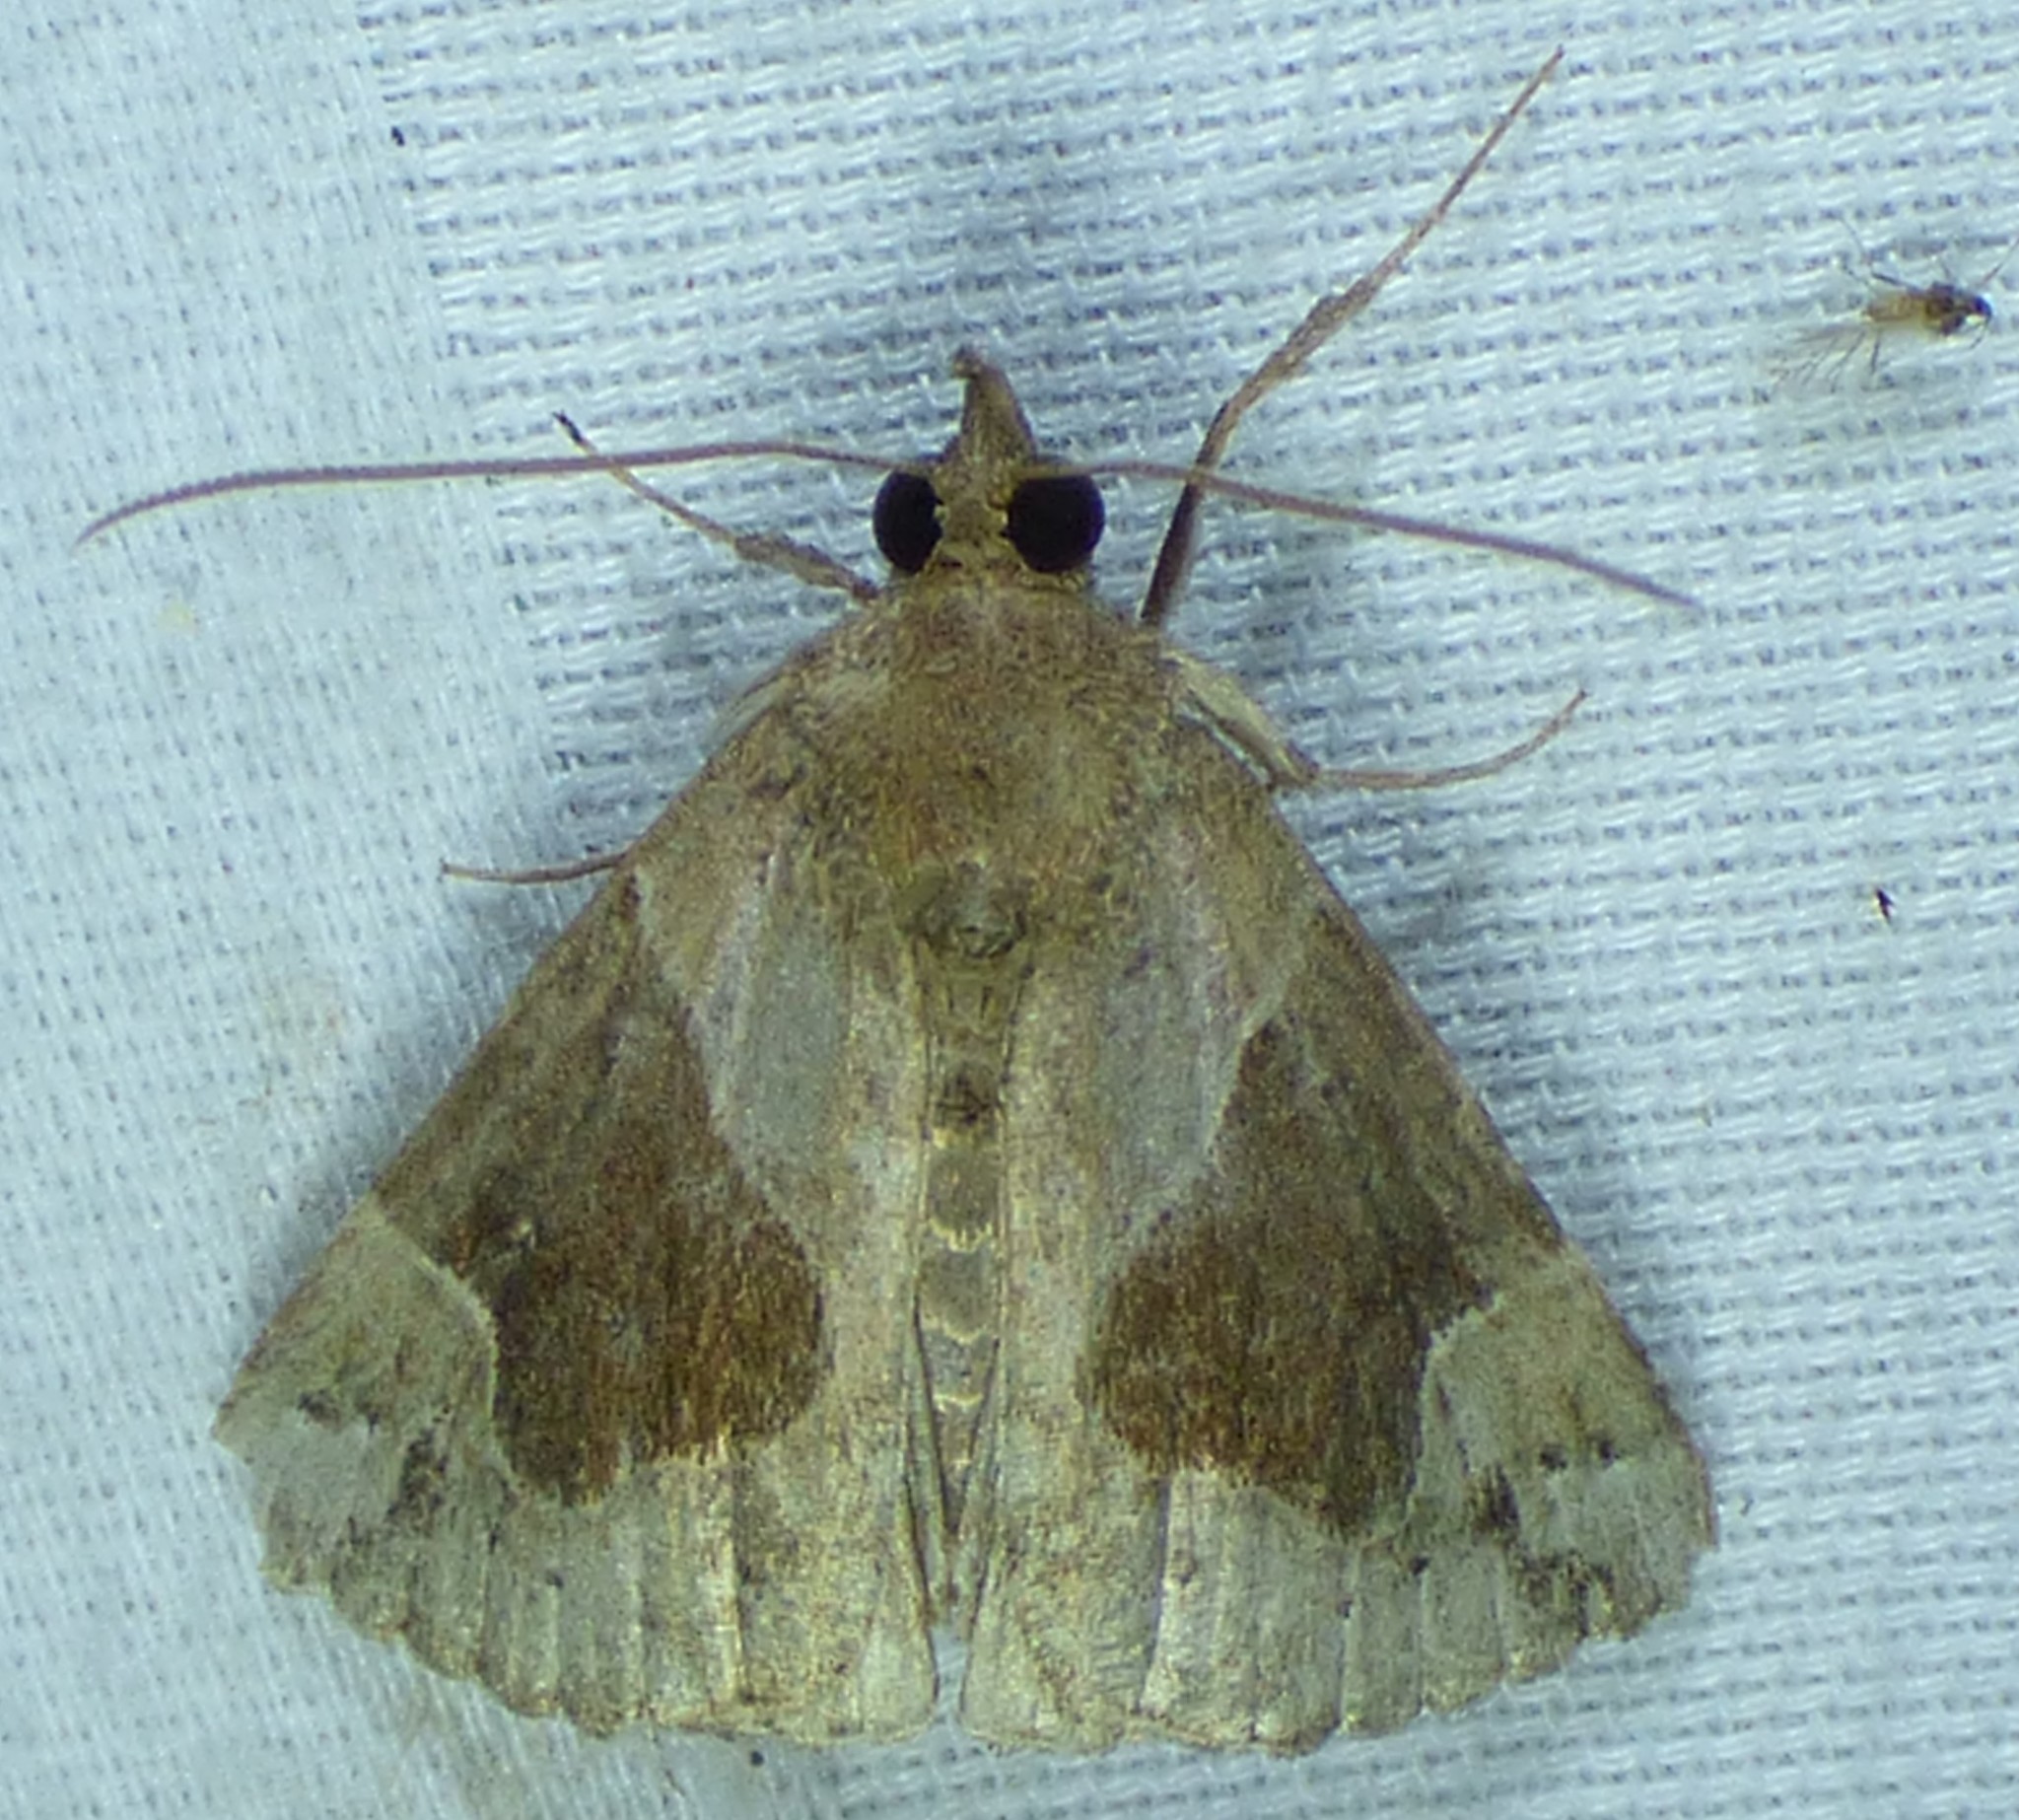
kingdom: Animalia
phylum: Arthropoda
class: Insecta
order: Lepidoptera
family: Erebidae
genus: Hypena
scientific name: Hypena manalis
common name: Flowing-line bomolocha moth
